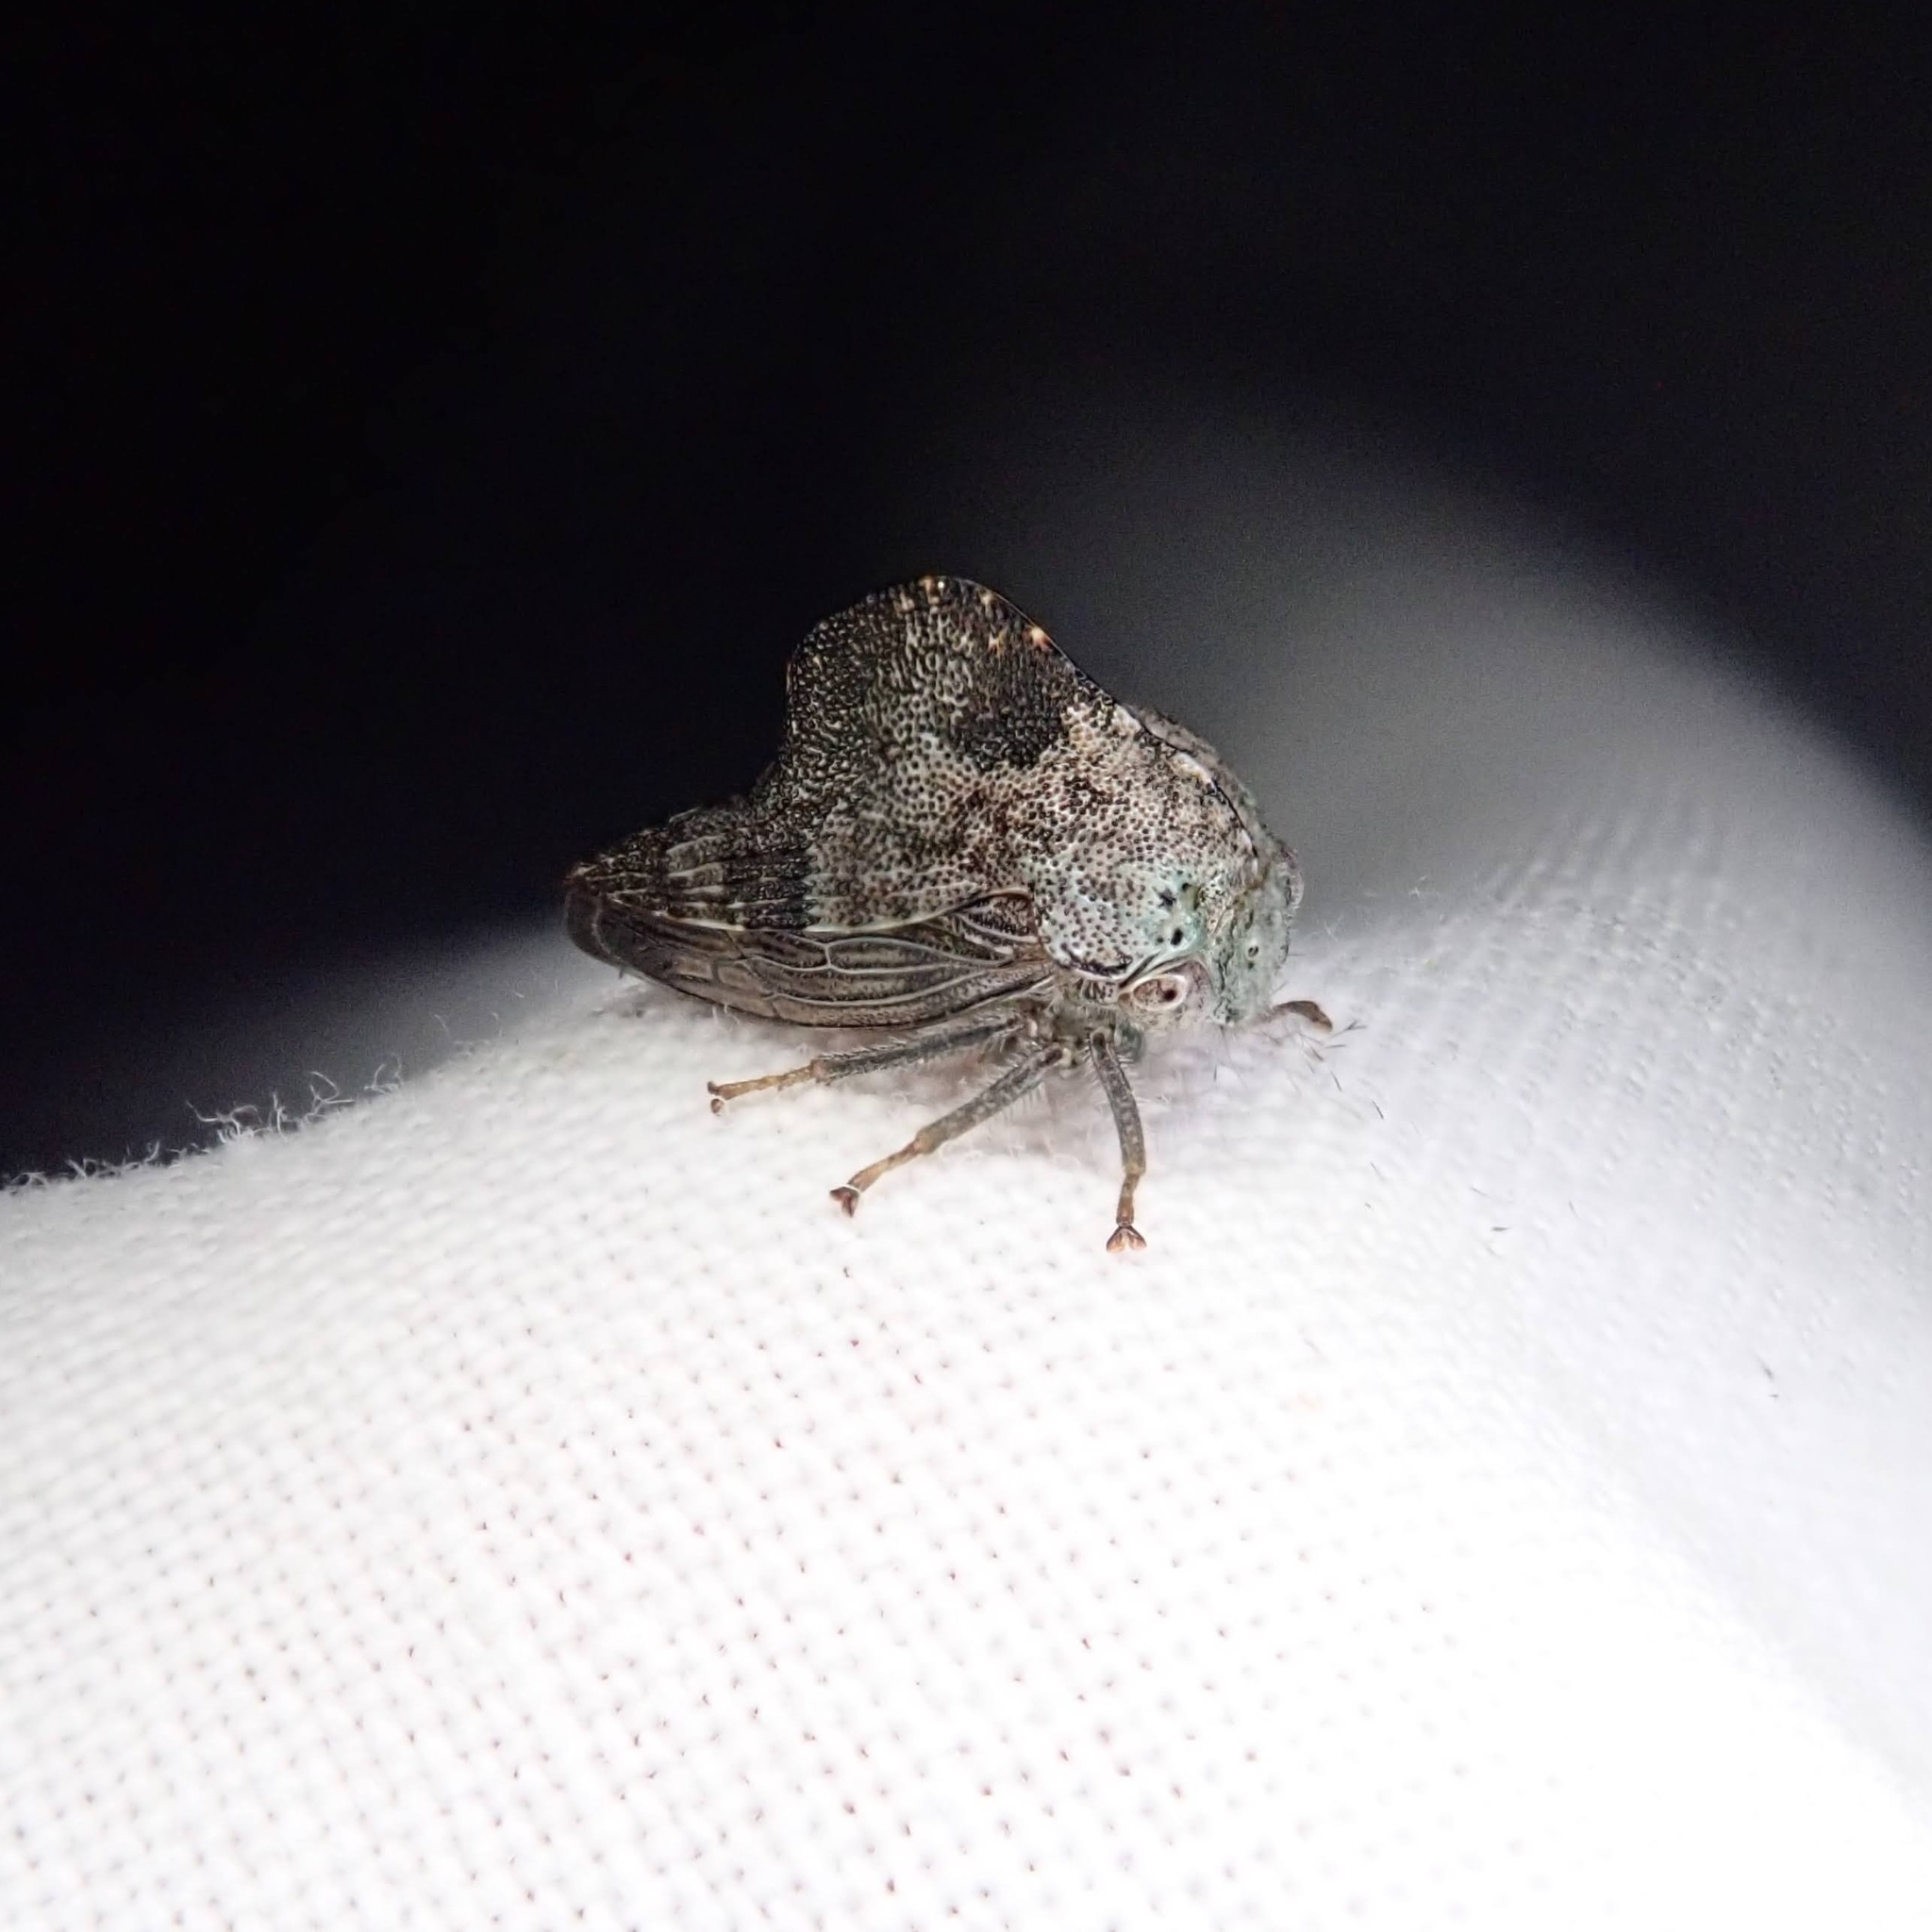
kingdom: Animalia
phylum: Arthropoda
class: Insecta
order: Hemiptera
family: Membracidae
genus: Telamona
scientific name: Telamona reclivata
